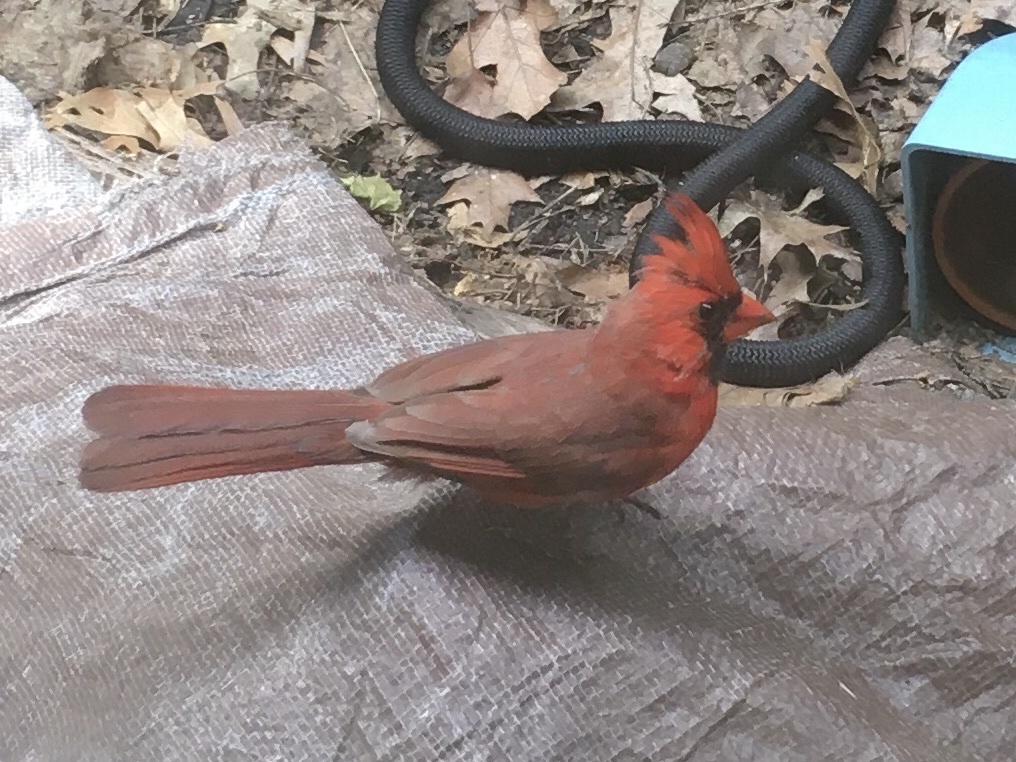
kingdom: Animalia
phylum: Chordata
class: Aves
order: Passeriformes
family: Cardinalidae
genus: Cardinalis
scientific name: Cardinalis cardinalis
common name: Northern cardinal
